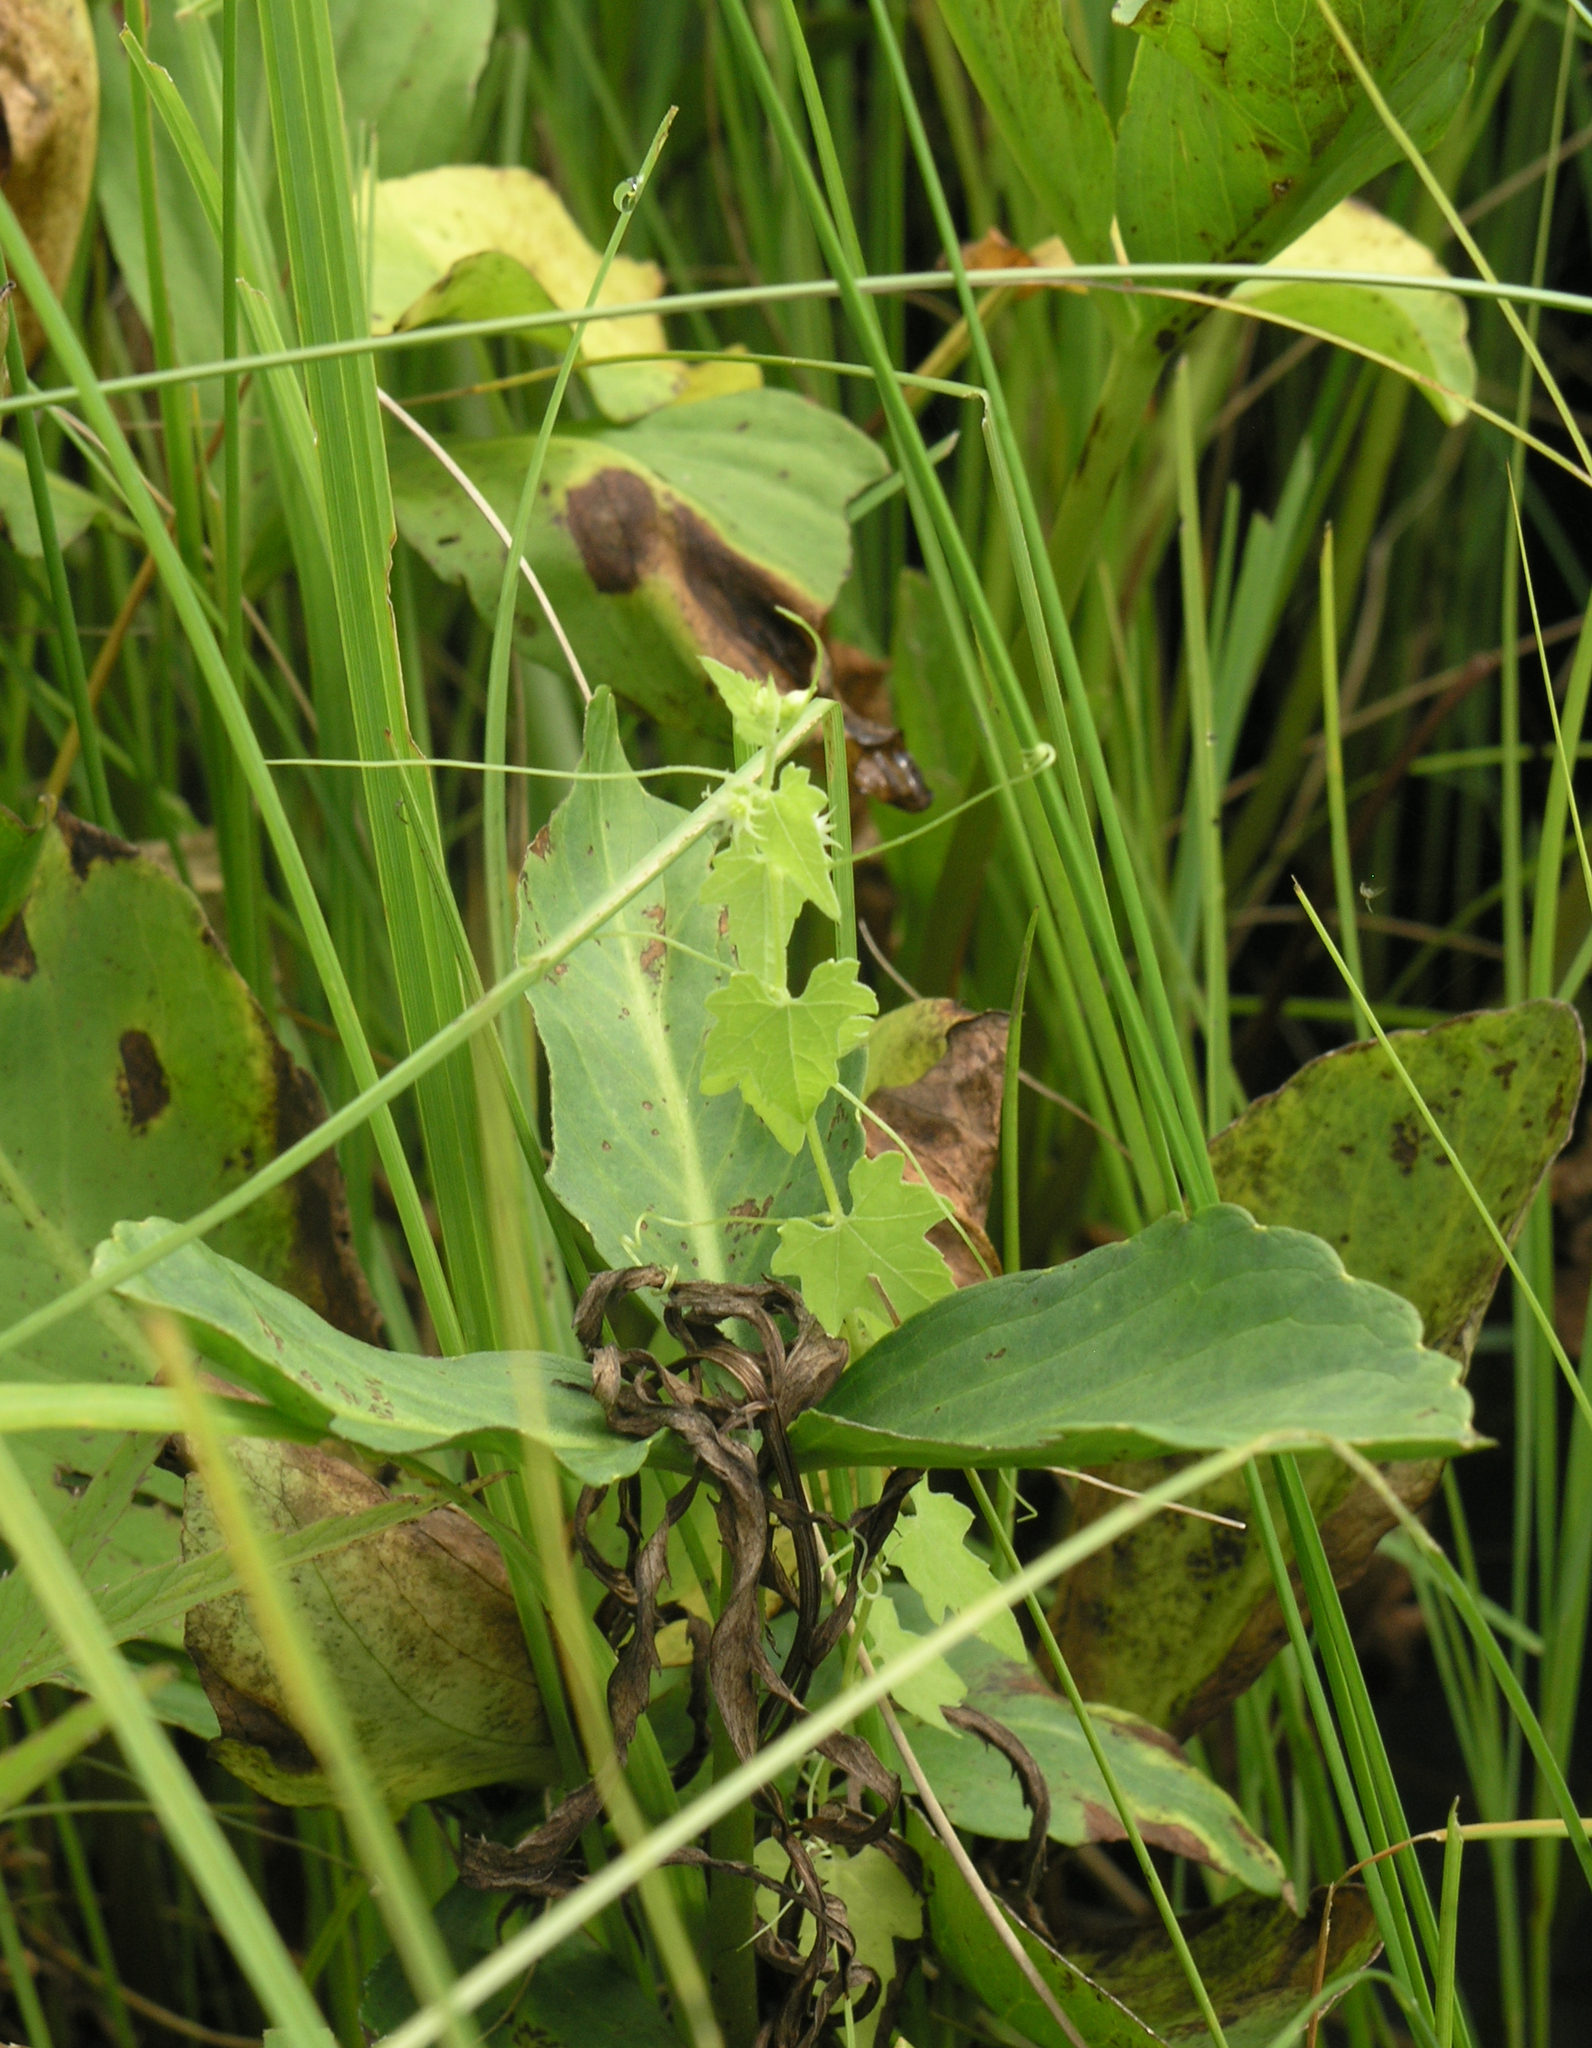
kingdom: Plantae
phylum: Tracheophyta
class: Magnoliopsida
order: Cucurbitales
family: Cucurbitaceae
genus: Actinostemma
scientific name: Actinostemma tenerum
